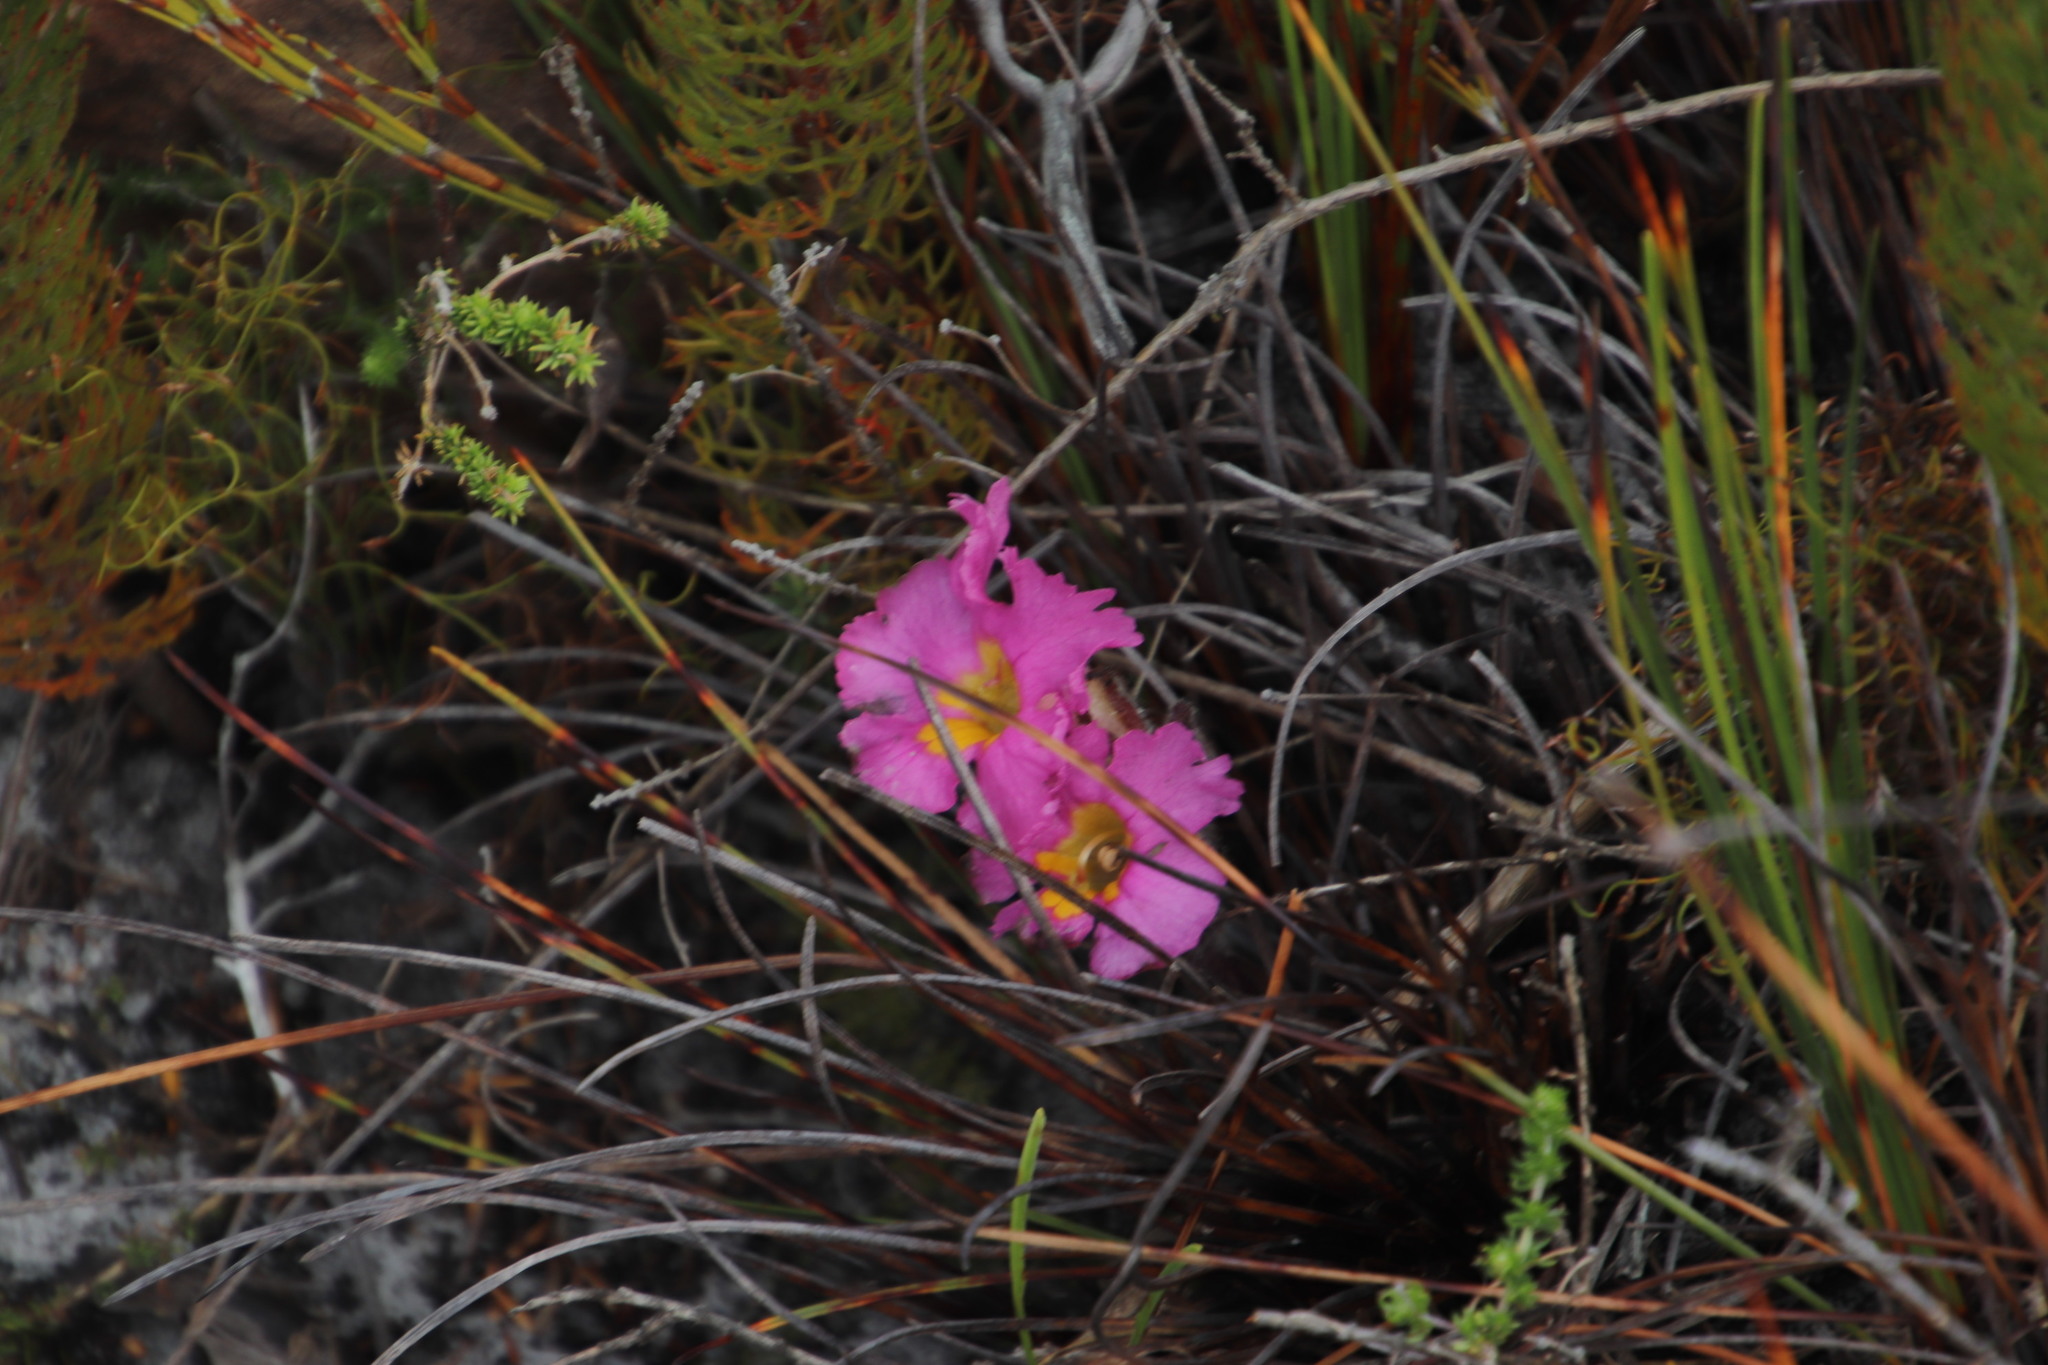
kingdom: Plantae
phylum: Tracheophyta
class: Magnoliopsida
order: Lamiales
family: Orobanchaceae
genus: Harveya
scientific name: Harveya purpurea
